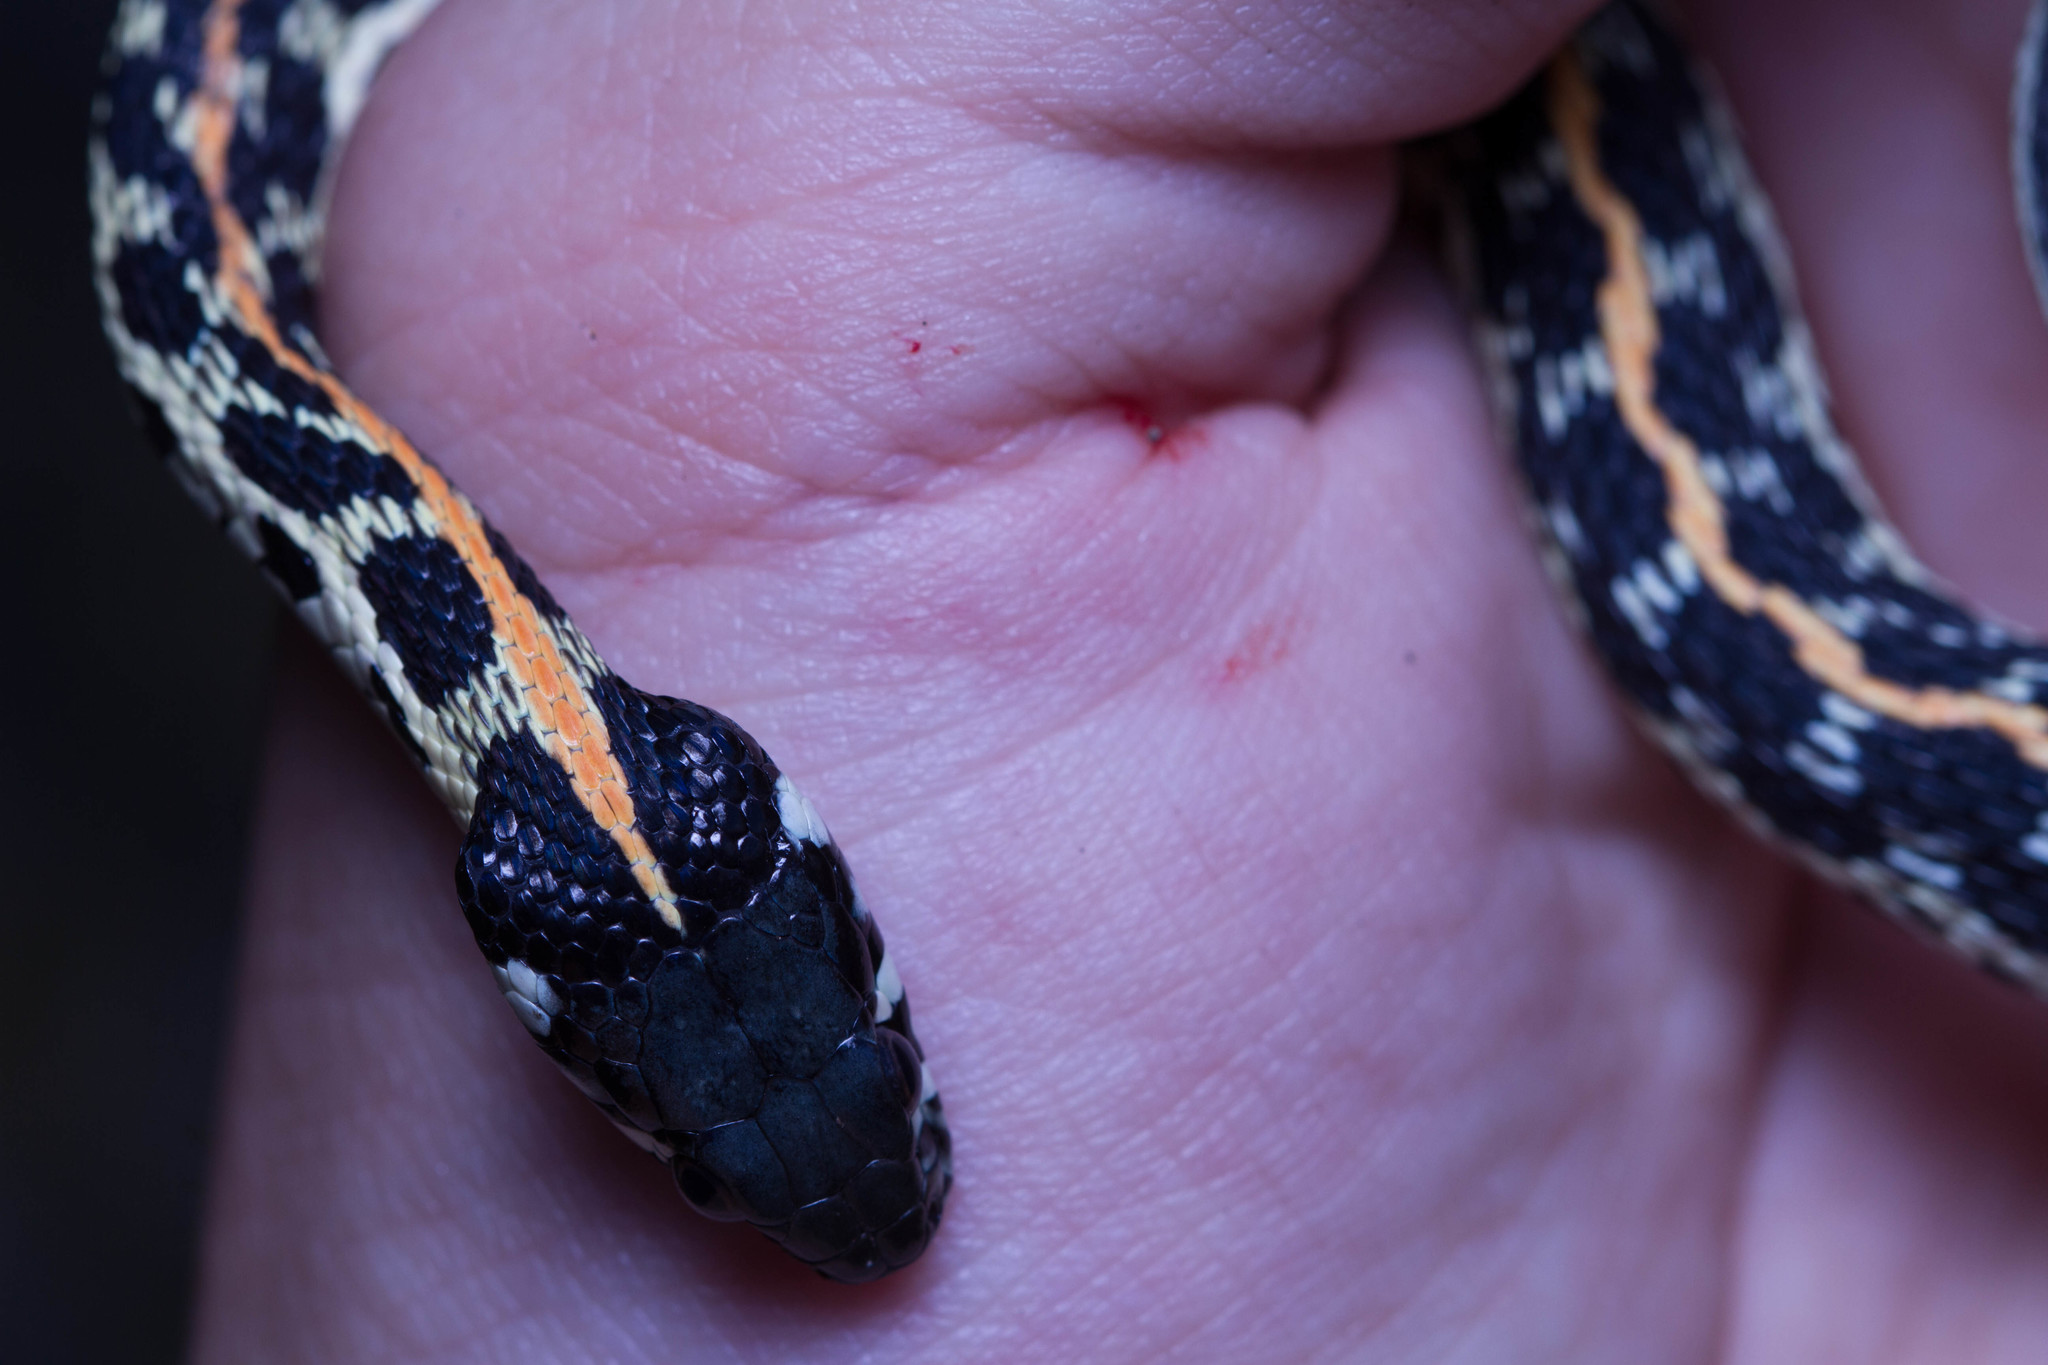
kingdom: Animalia
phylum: Chordata
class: Squamata
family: Colubridae
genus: Thamnophis
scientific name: Thamnophis cyrtopsis
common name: Black-necked gartersnake
